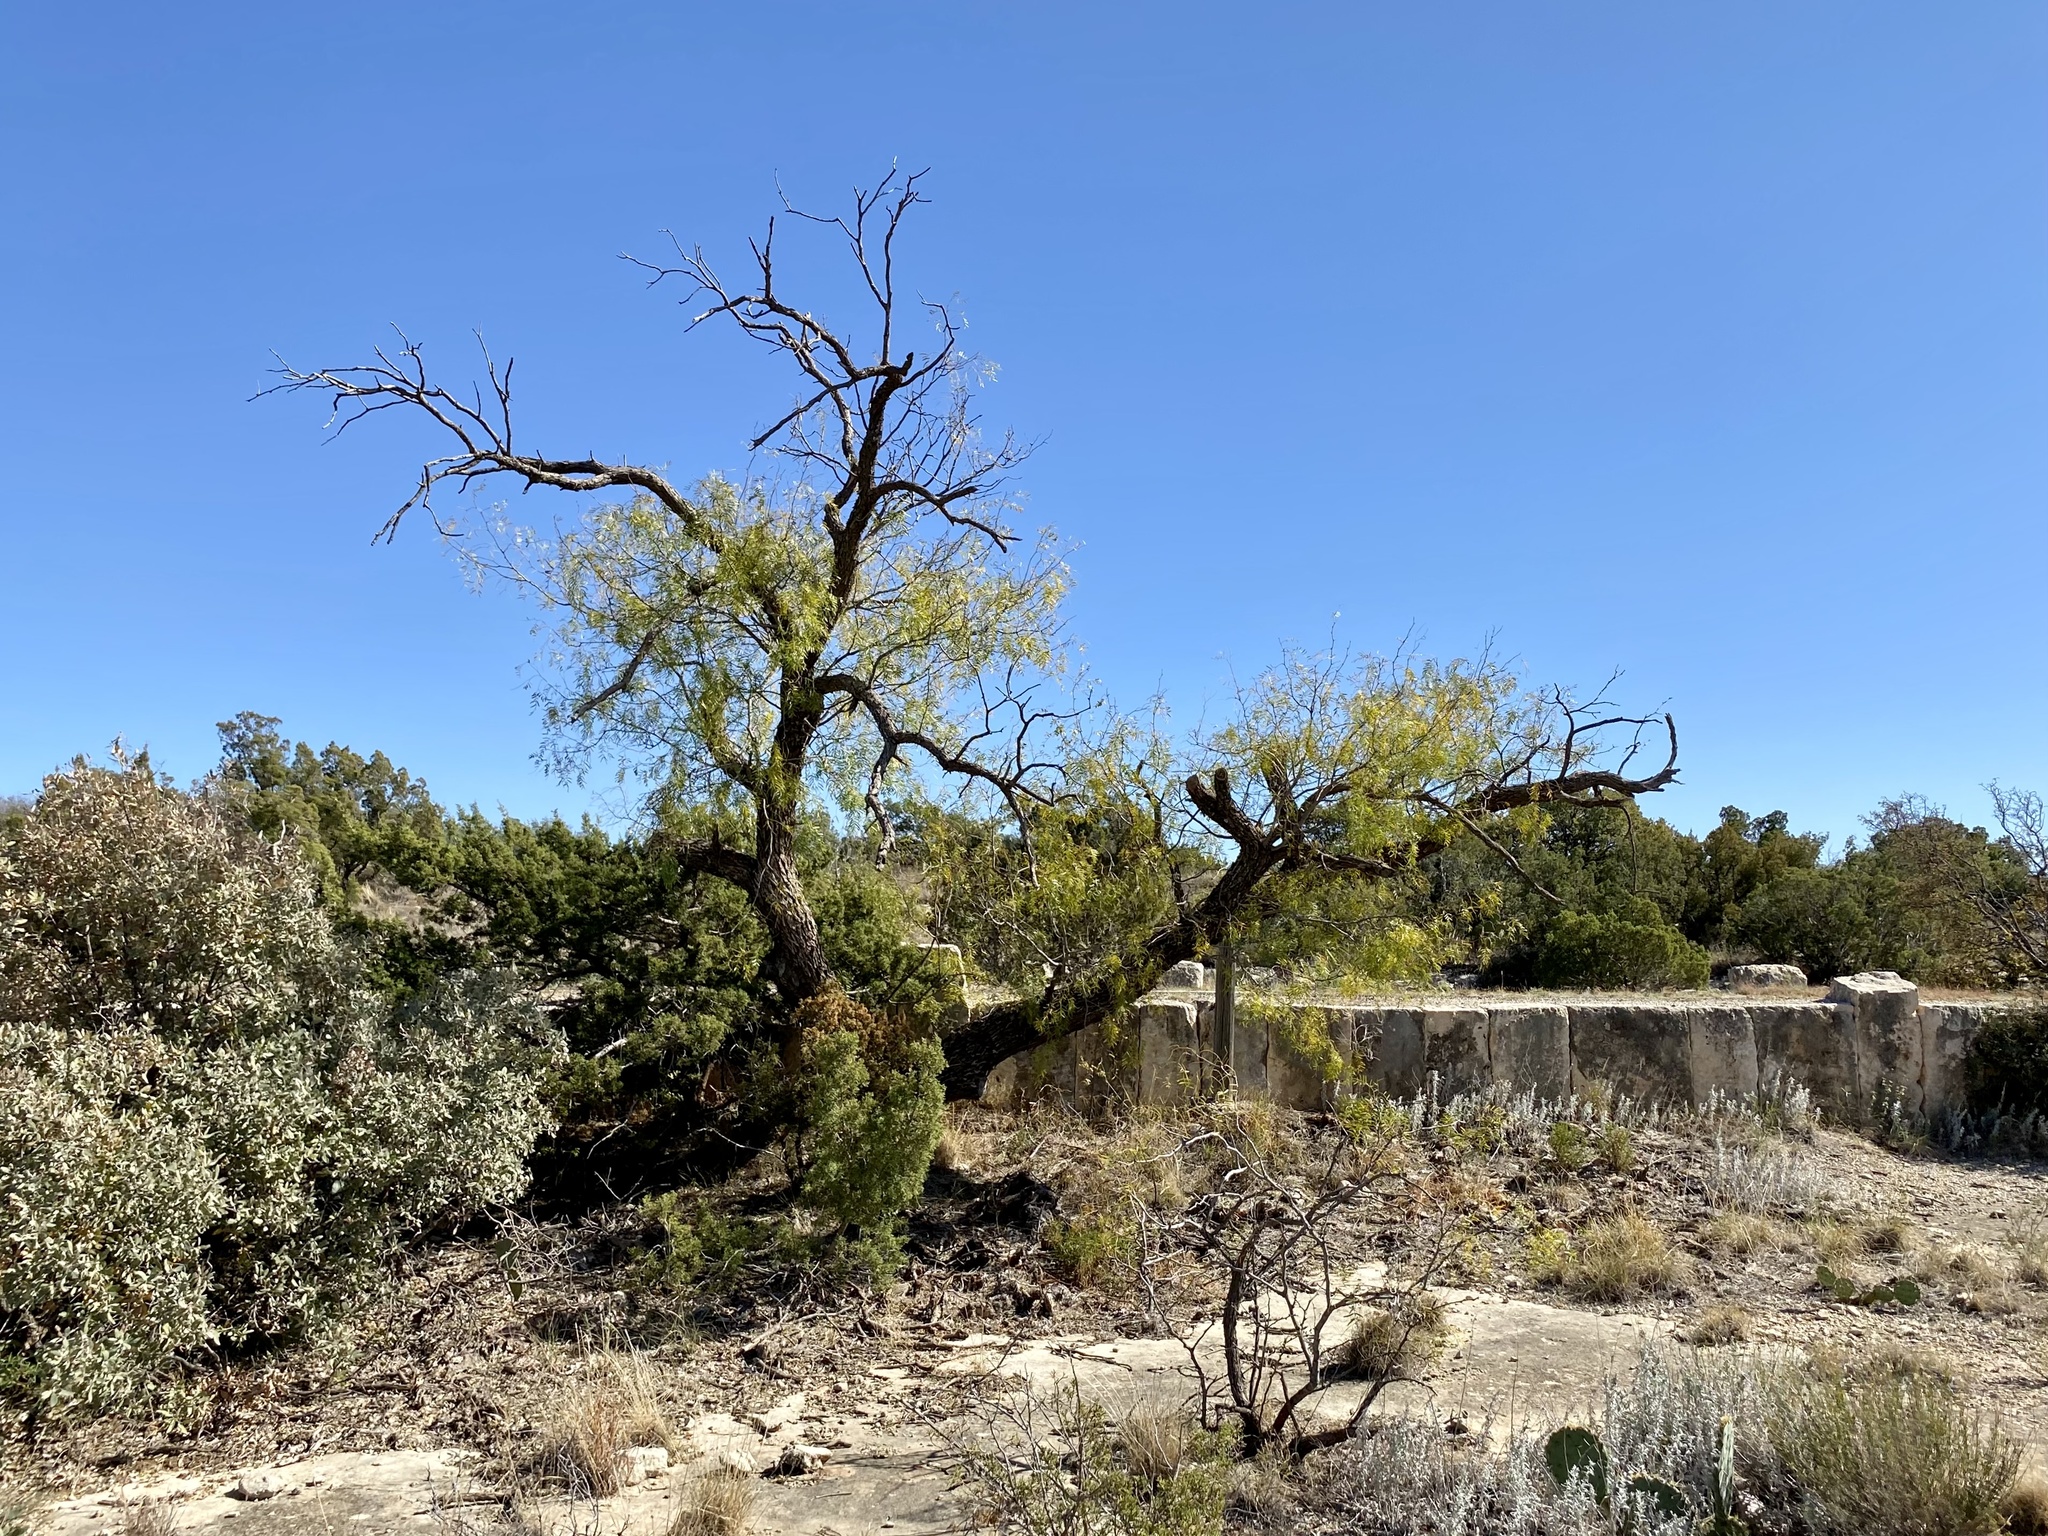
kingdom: Plantae
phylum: Tracheophyta
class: Magnoliopsida
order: Fabales
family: Fabaceae
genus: Prosopis
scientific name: Prosopis glandulosa
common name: Honey mesquite
